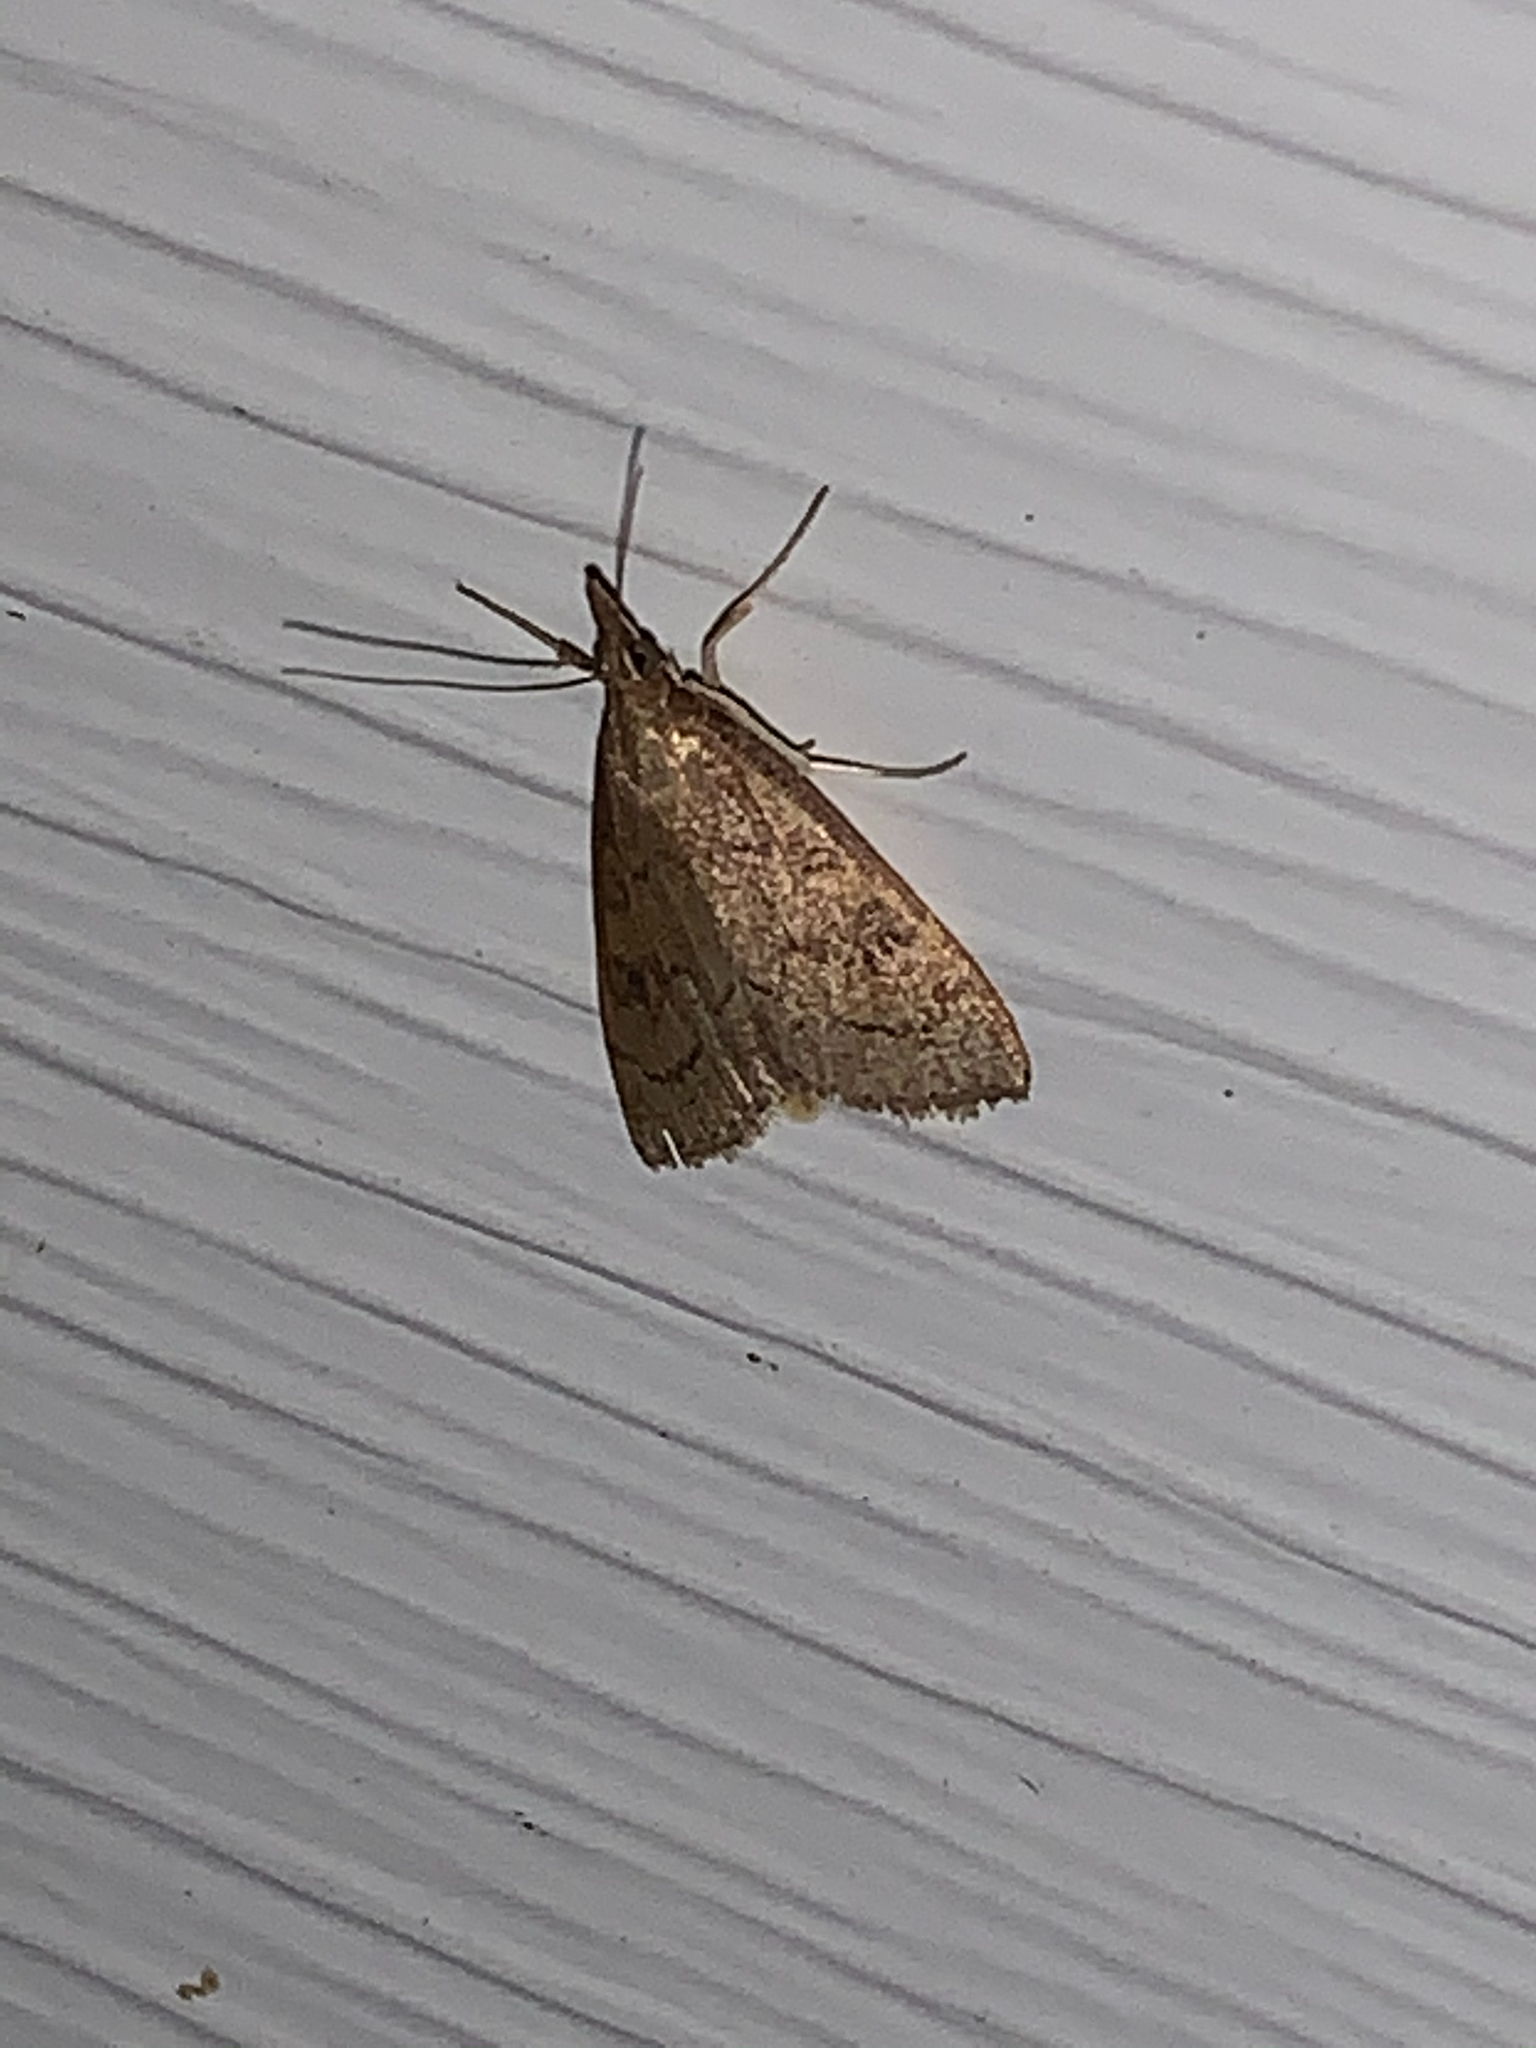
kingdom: Animalia
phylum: Arthropoda
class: Insecta
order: Lepidoptera
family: Crambidae
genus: Udea
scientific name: Udea rubigalis
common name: Celery leaftier moth
